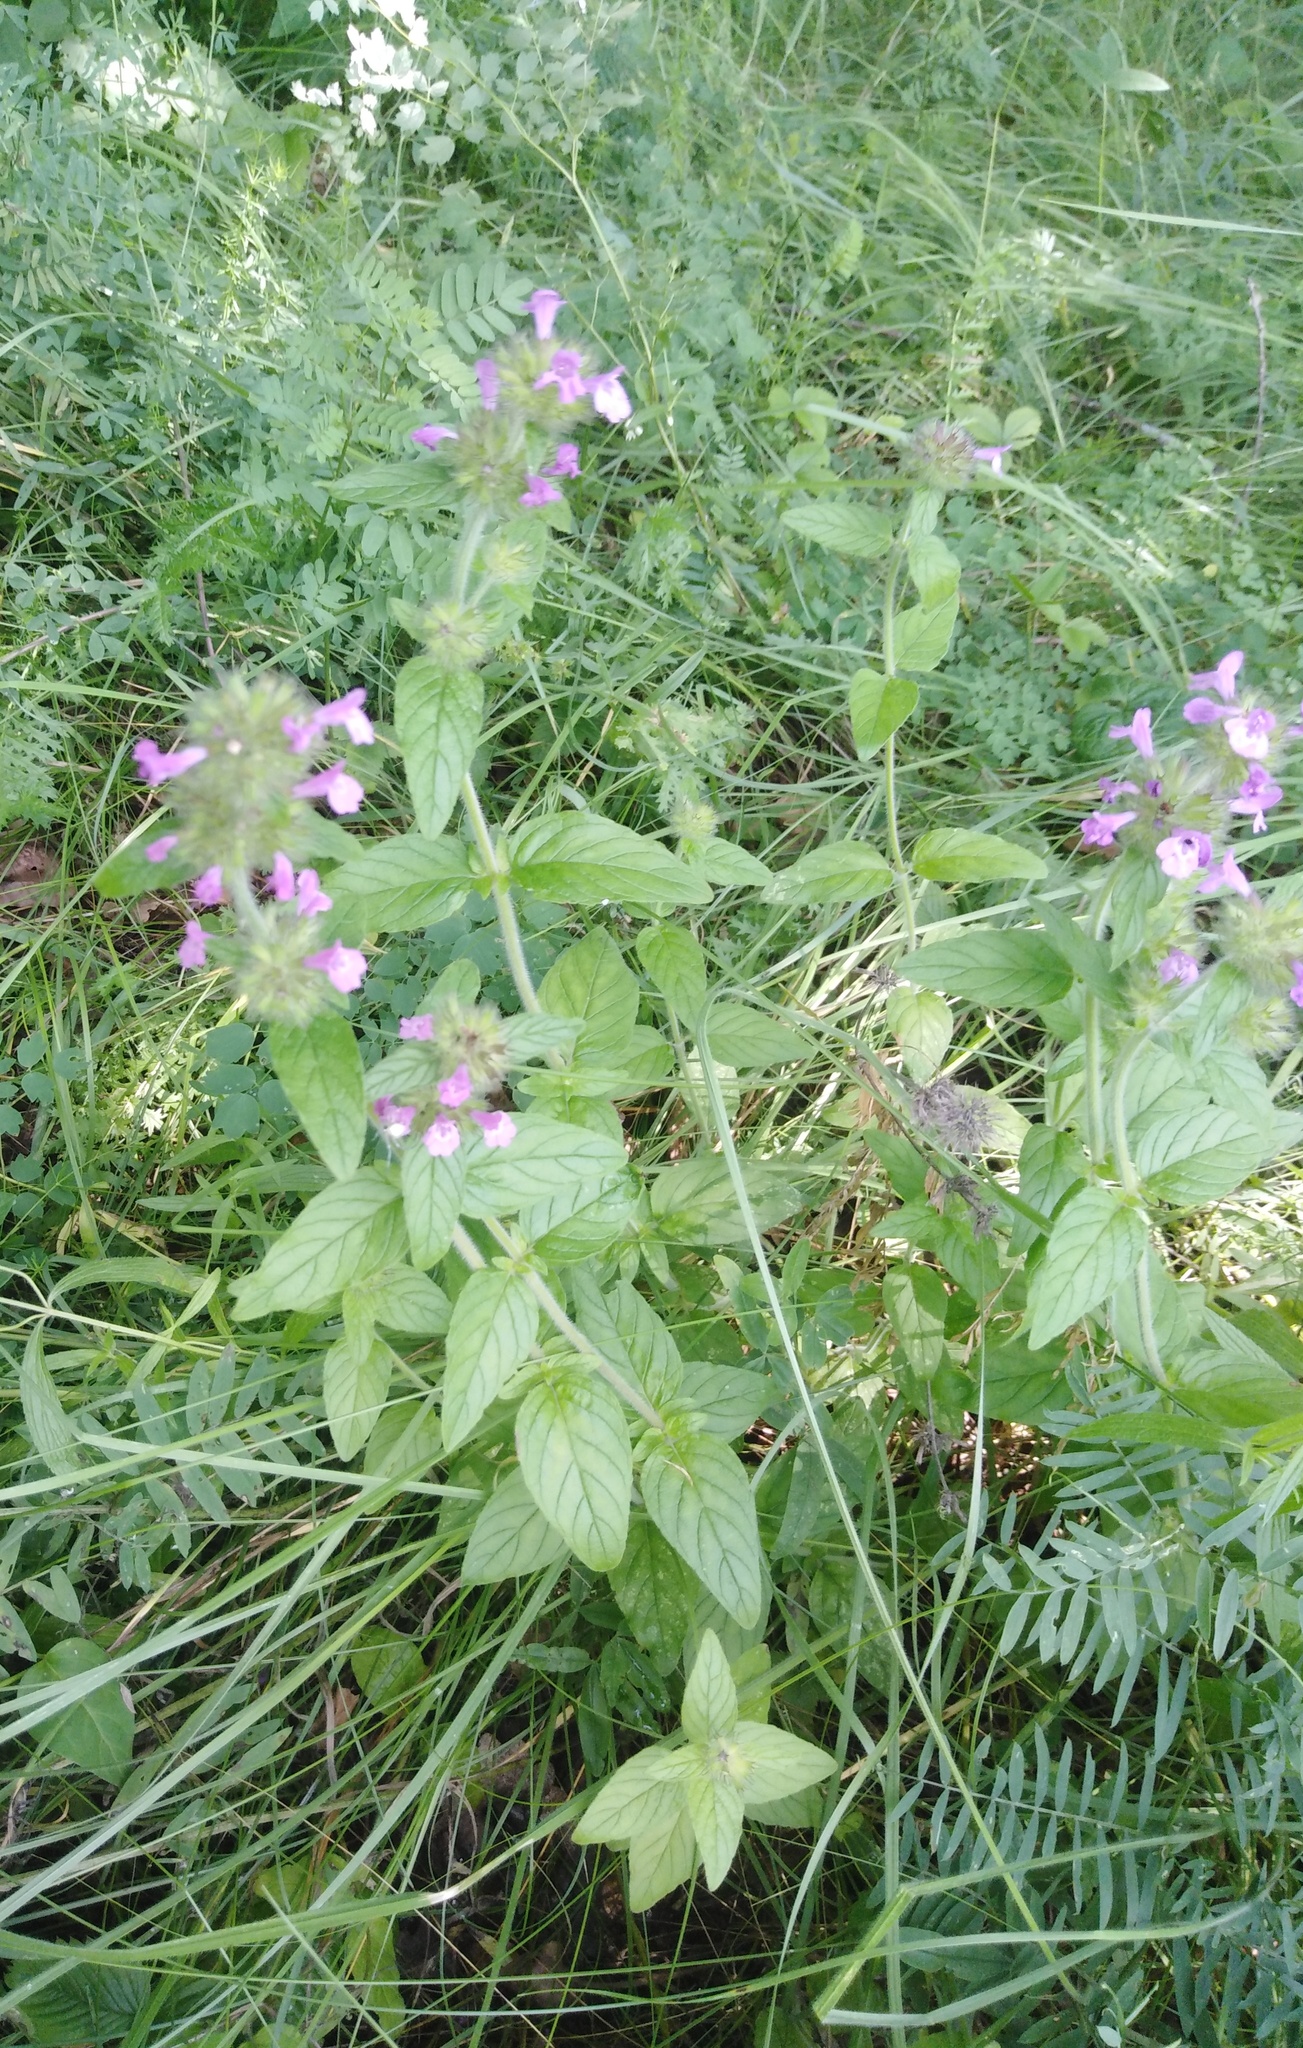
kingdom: Plantae
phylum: Tracheophyta
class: Magnoliopsida
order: Lamiales
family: Lamiaceae
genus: Clinopodium
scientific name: Clinopodium vulgare
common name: Wild basil
